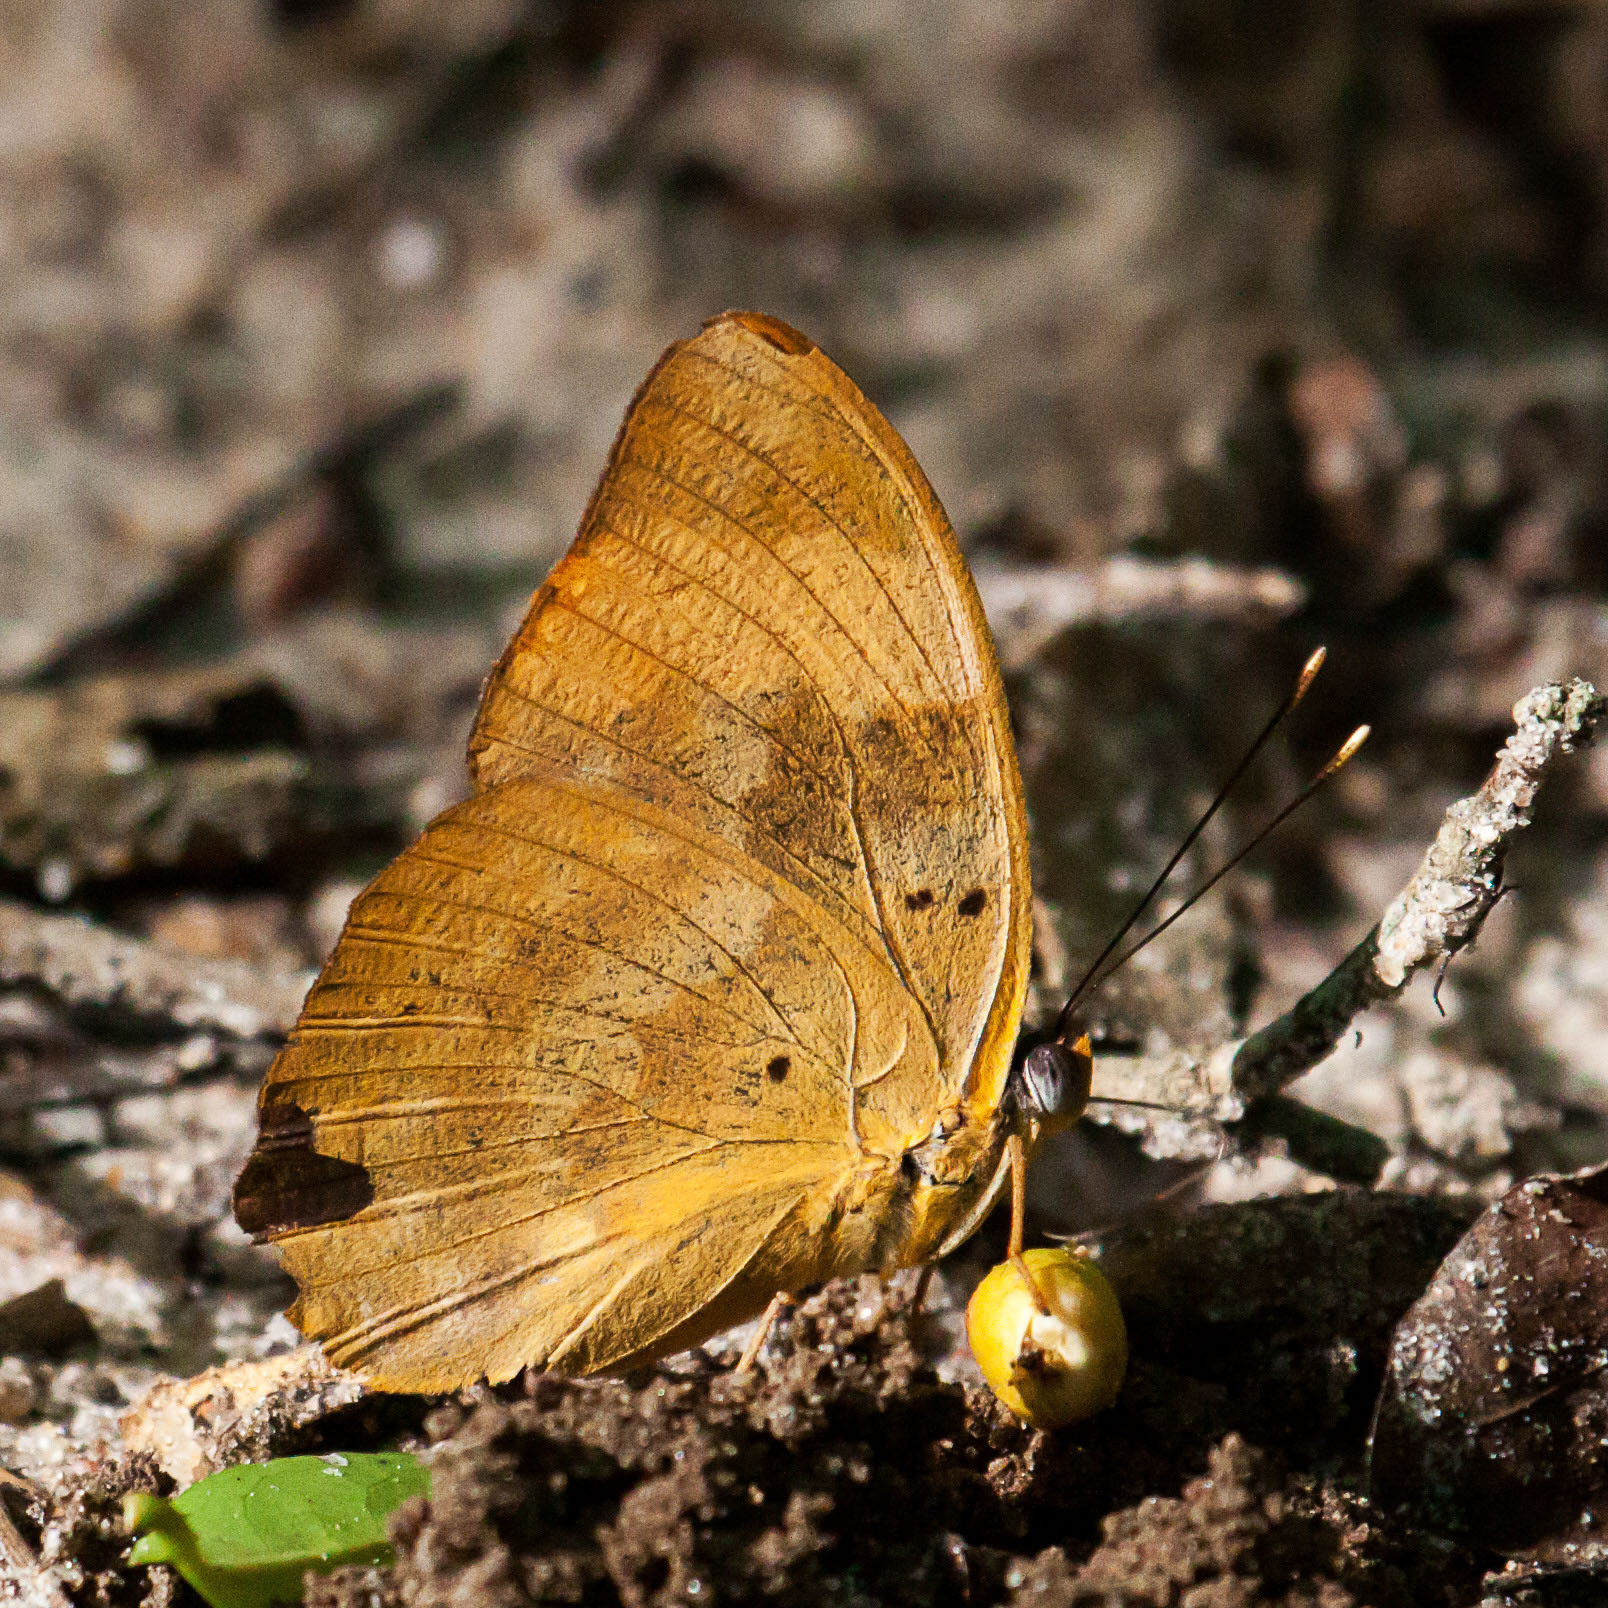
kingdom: Animalia
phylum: Arthropoda
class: Insecta
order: Lepidoptera
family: Nymphalidae
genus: Euphaedra
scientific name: Euphaedra neophron
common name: Gold-banded forester
